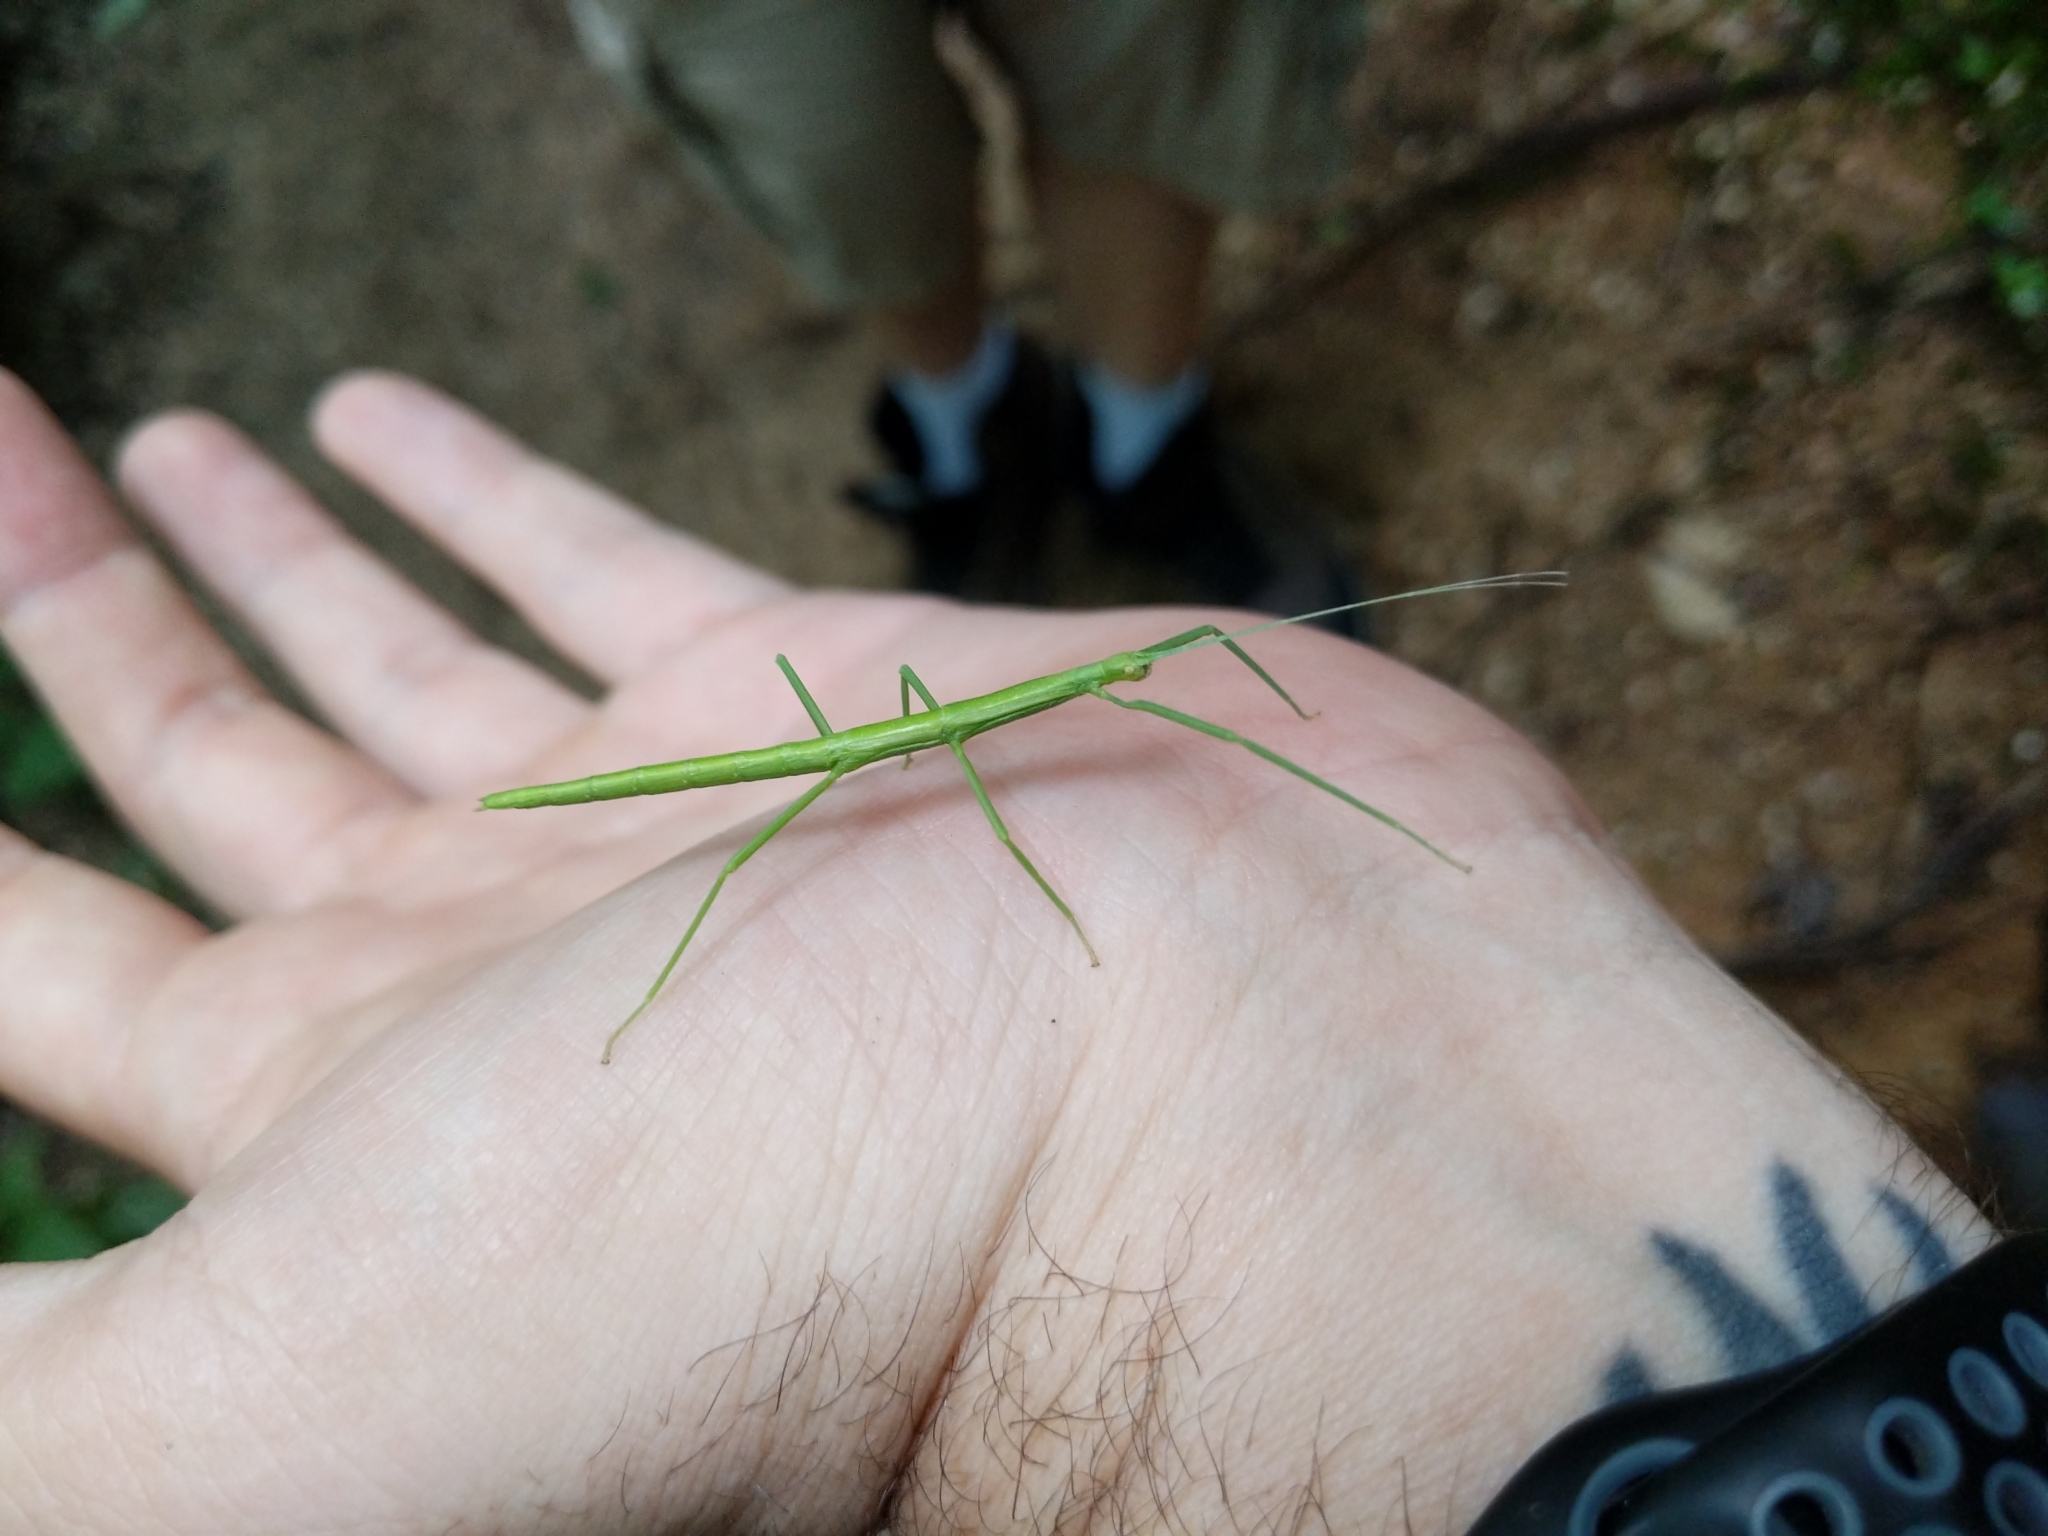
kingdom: Animalia
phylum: Arthropoda
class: Insecta
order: Phasmida
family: Diapheromeridae
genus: Diapheromera
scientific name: Diapheromera femorata
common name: Common american walkingstick
